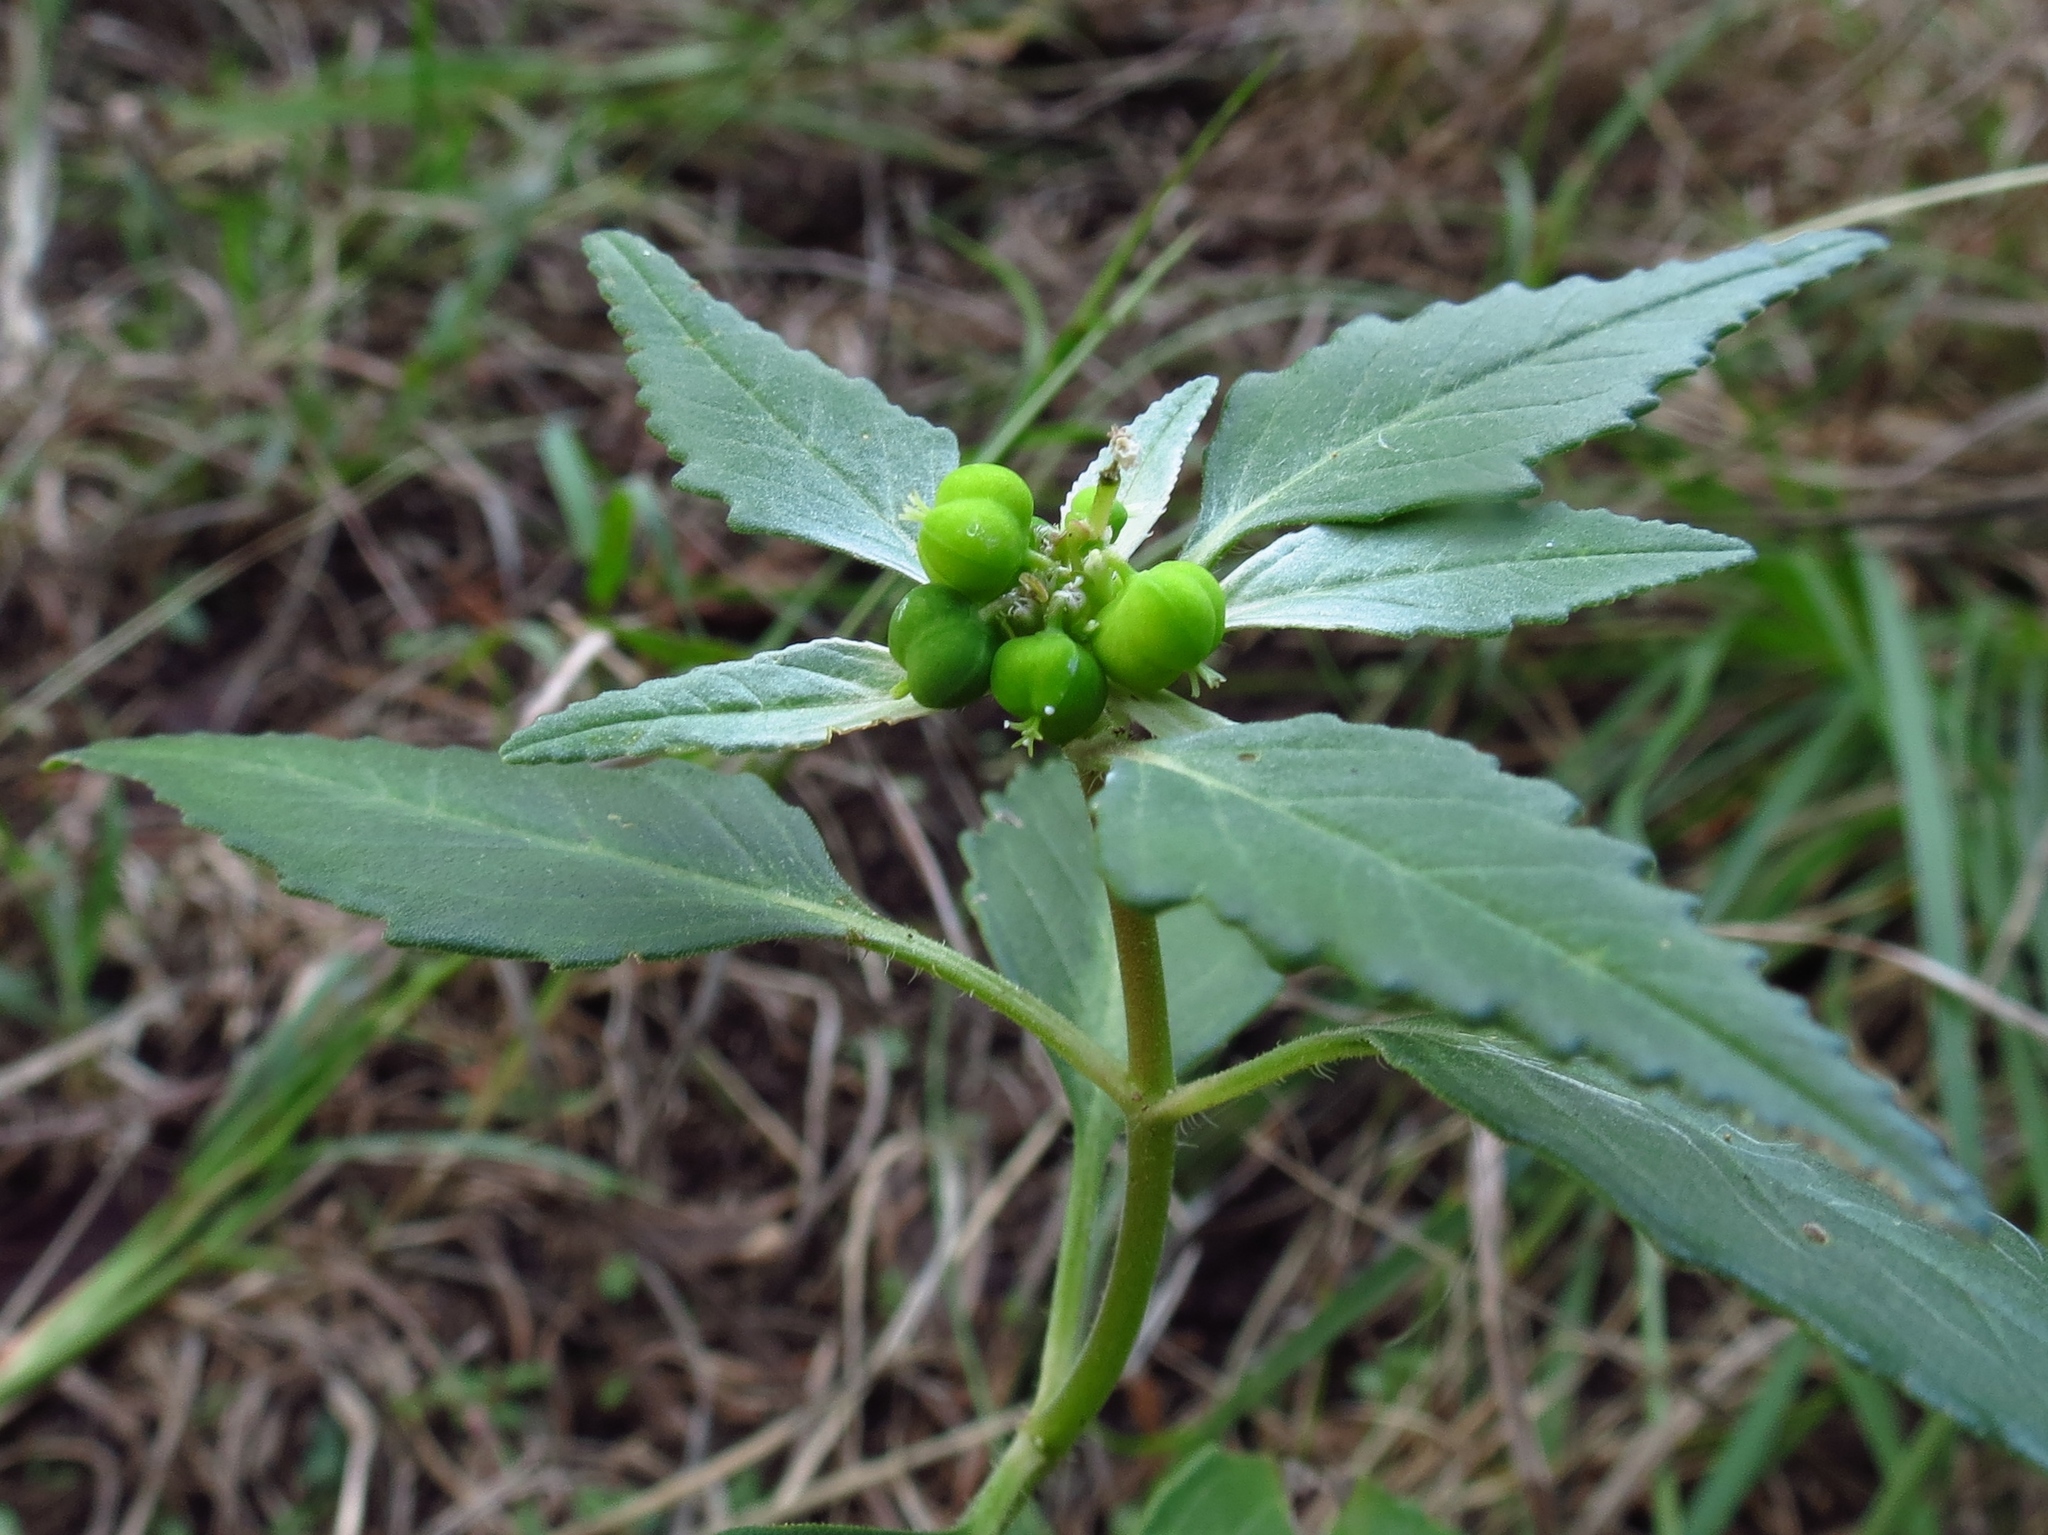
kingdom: Plantae
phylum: Tracheophyta
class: Magnoliopsida
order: Malpighiales
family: Euphorbiaceae
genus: Euphorbia
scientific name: Euphorbia dentata
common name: Dentate spurge
